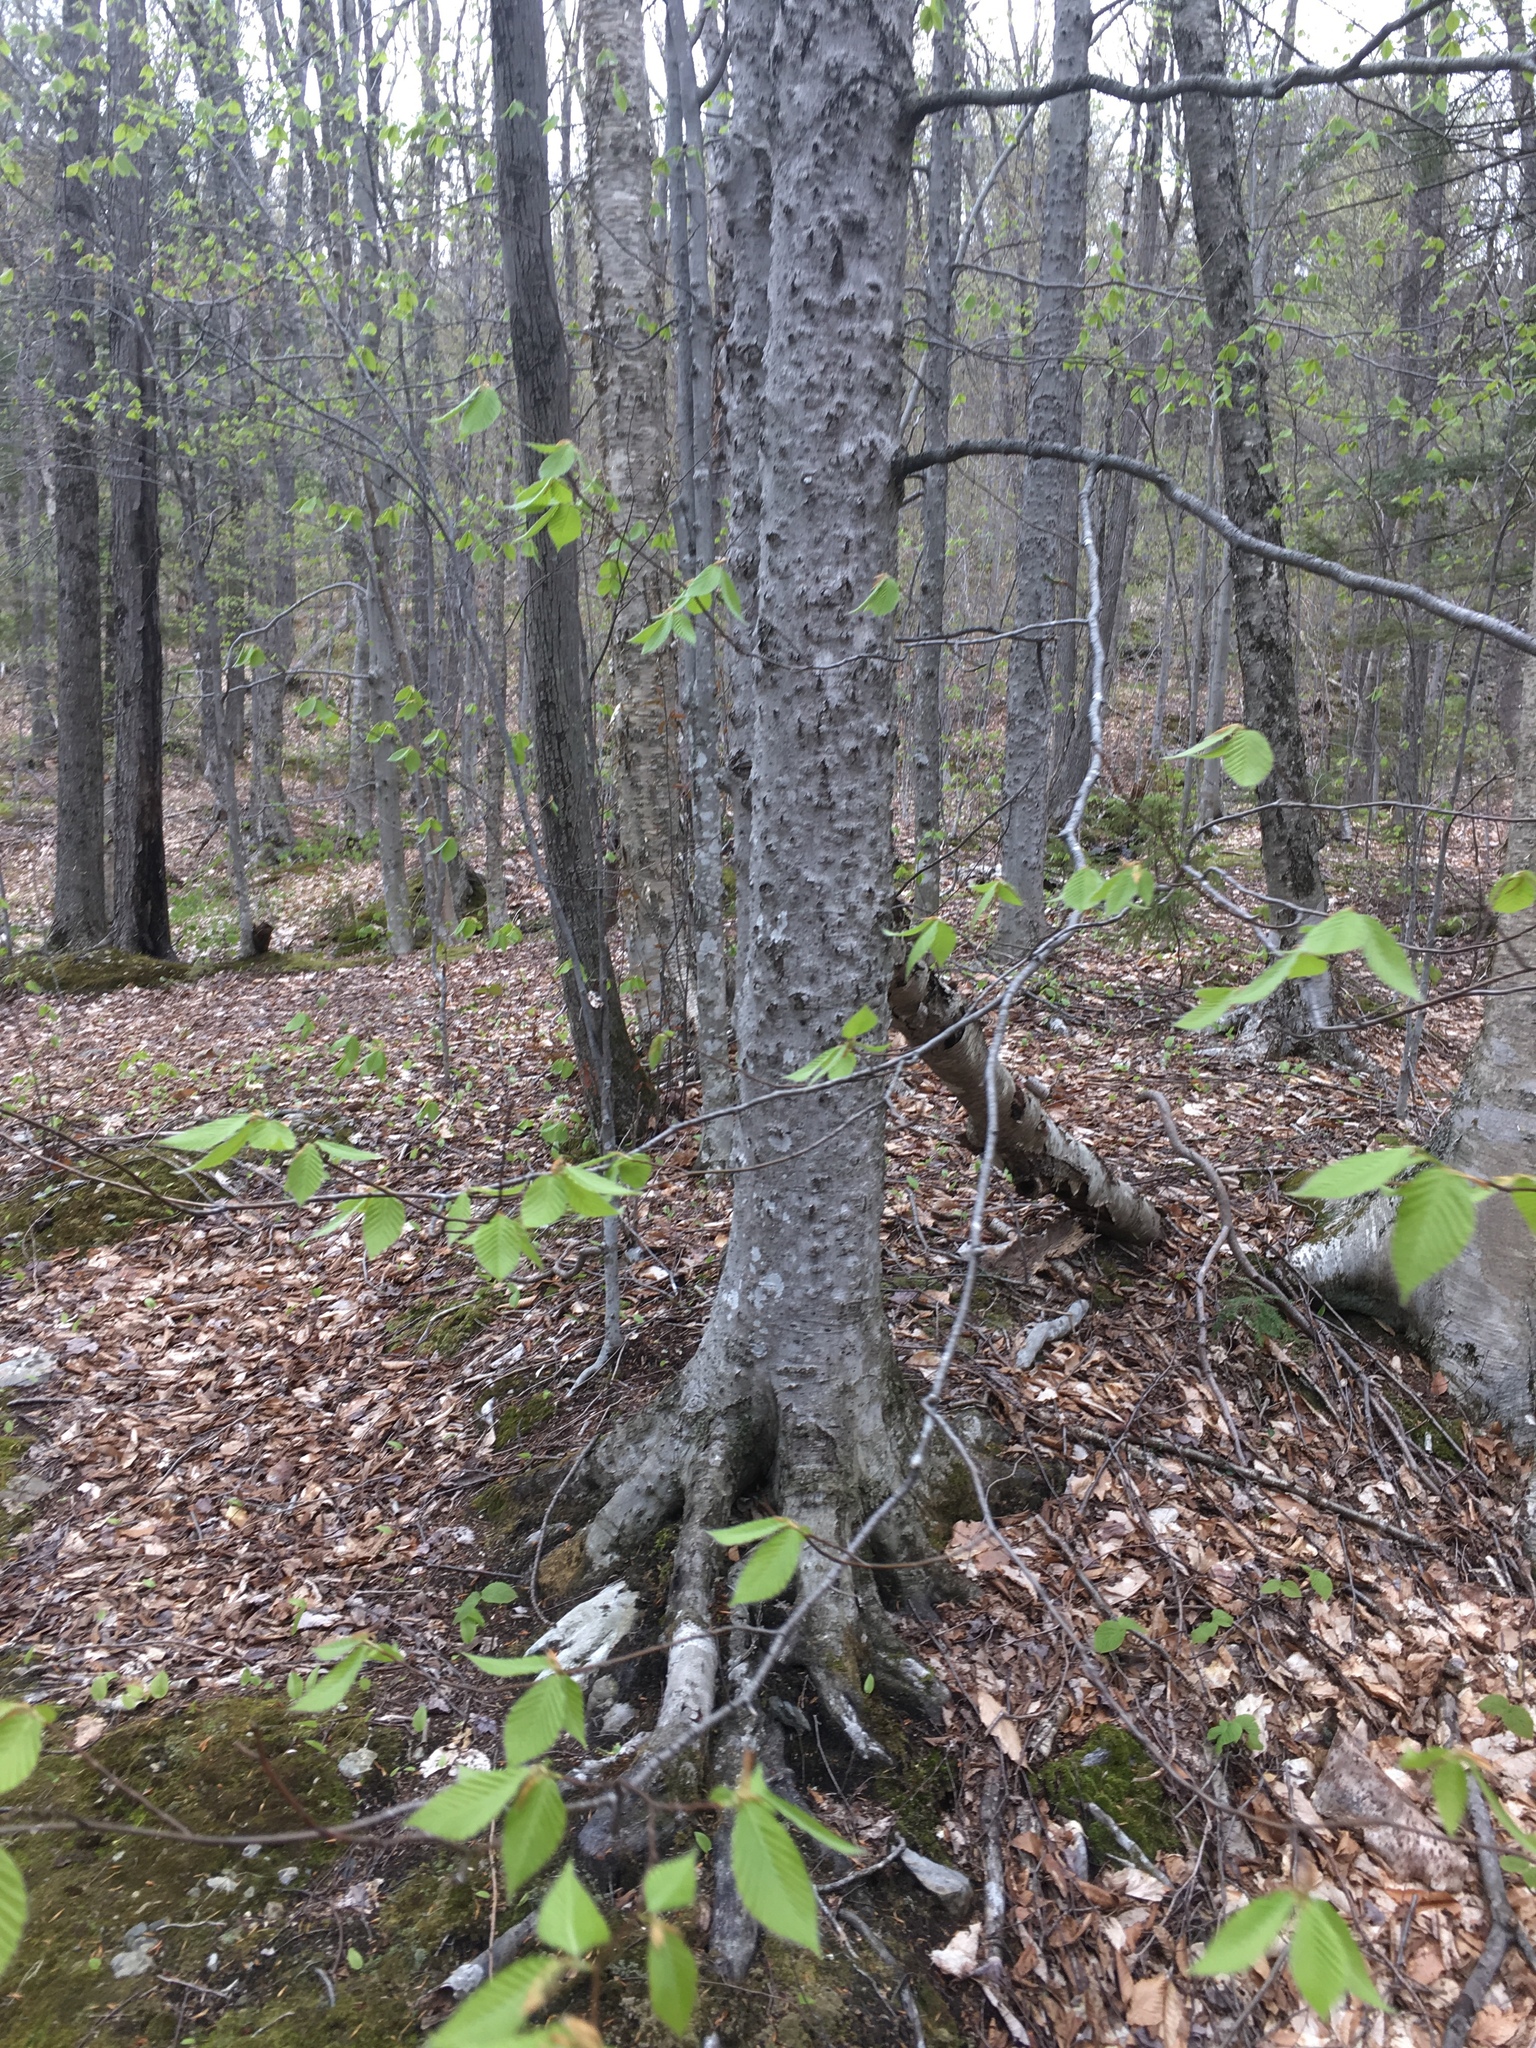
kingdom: Plantae
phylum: Tracheophyta
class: Magnoliopsida
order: Fagales
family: Fagaceae
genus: Fagus
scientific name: Fagus grandifolia
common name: American beech
